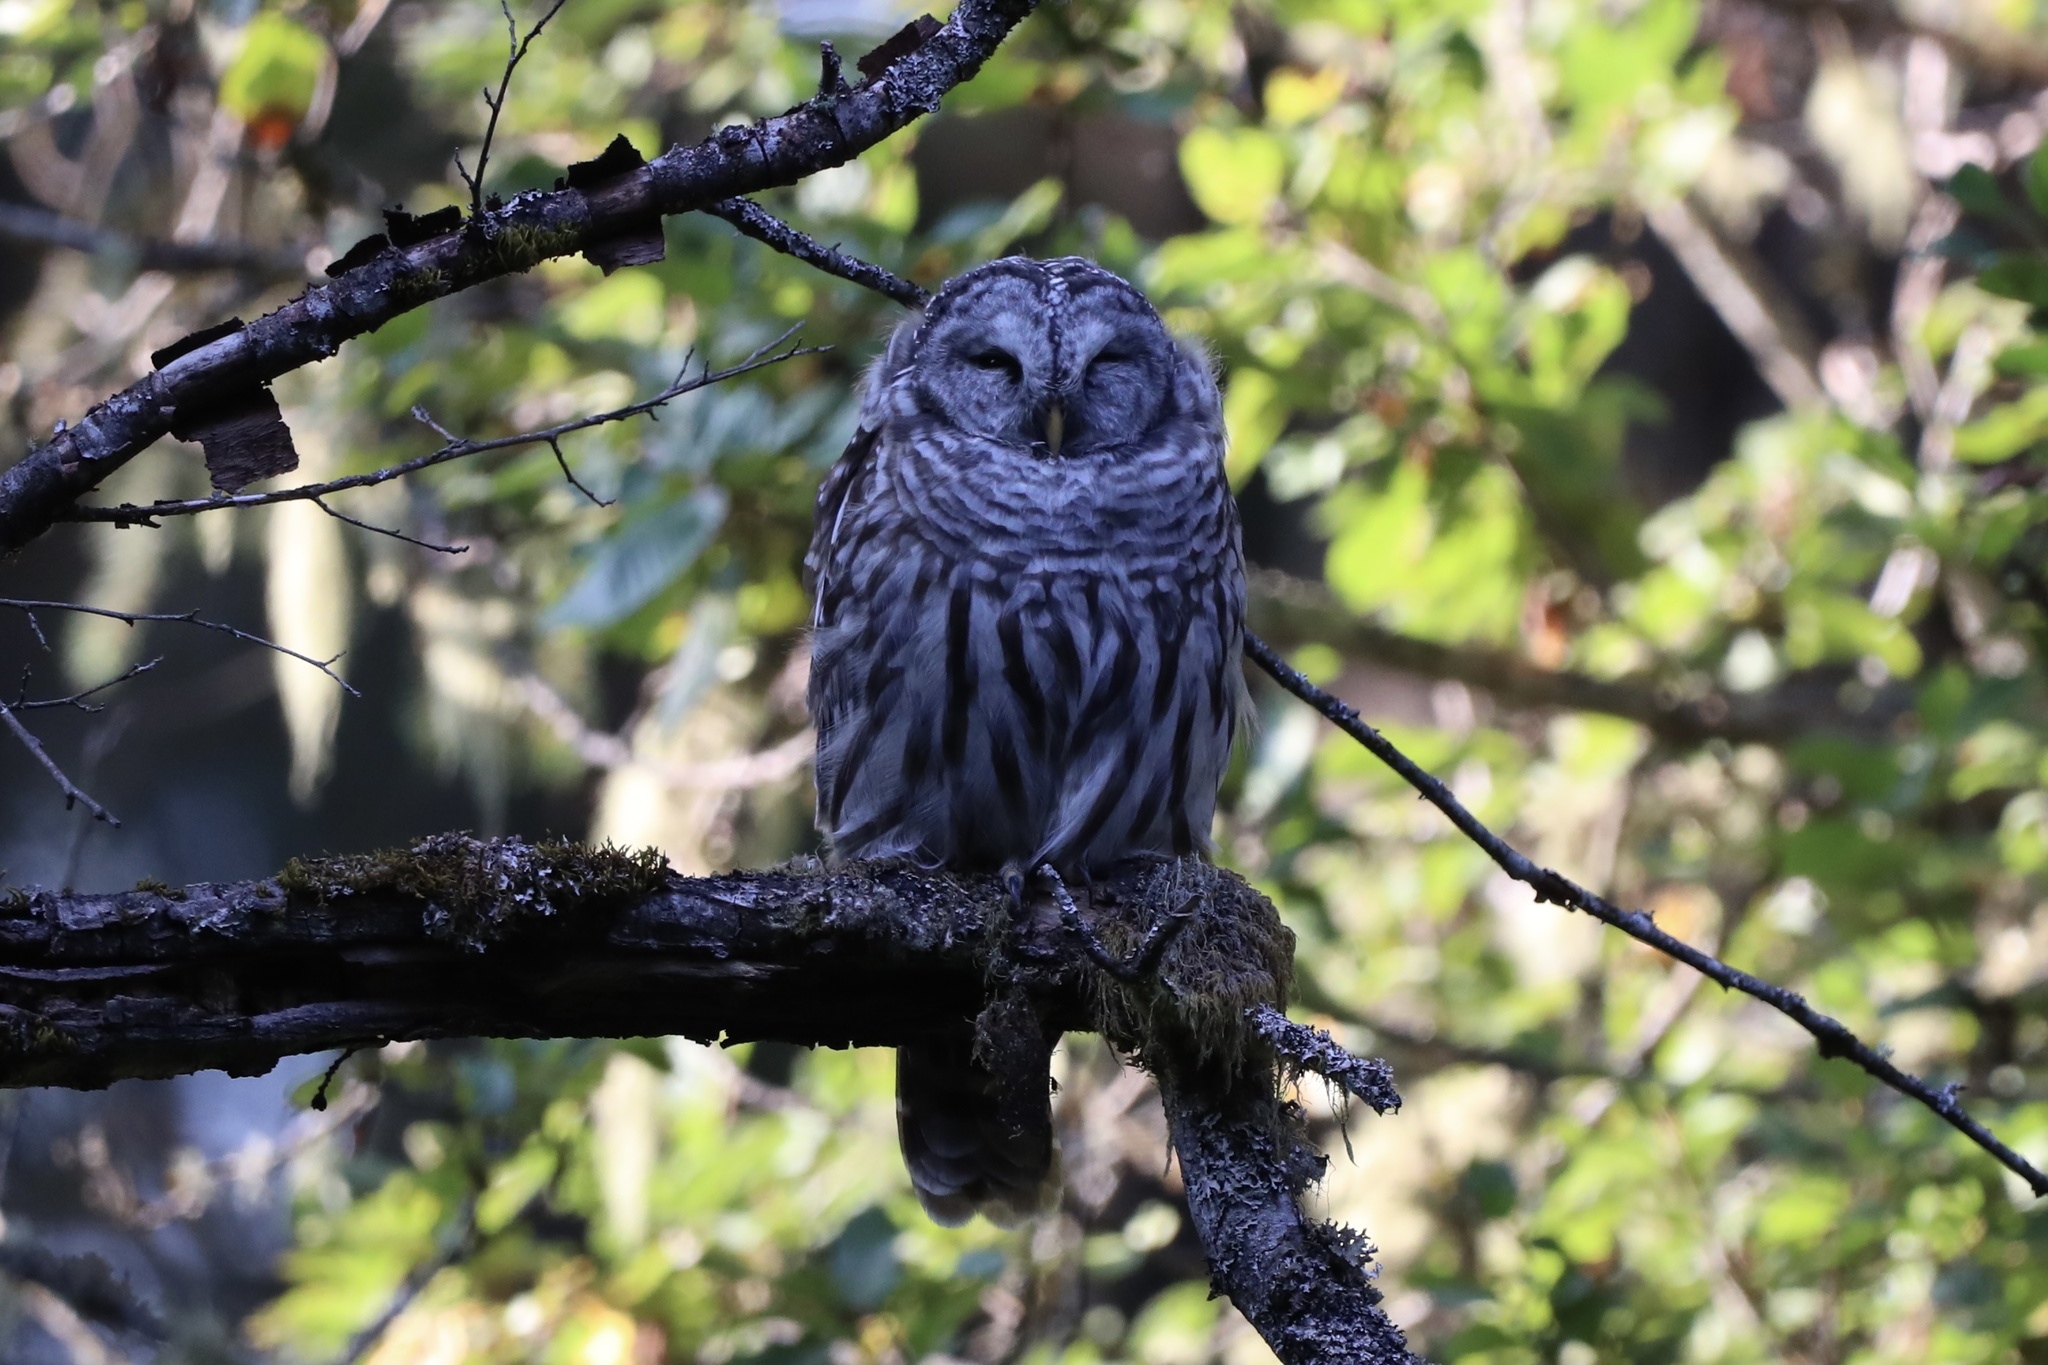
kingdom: Animalia
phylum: Chordata
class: Aves
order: Strigiformes
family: Strigidae
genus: Strix
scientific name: Strix varia
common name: Barred owl
